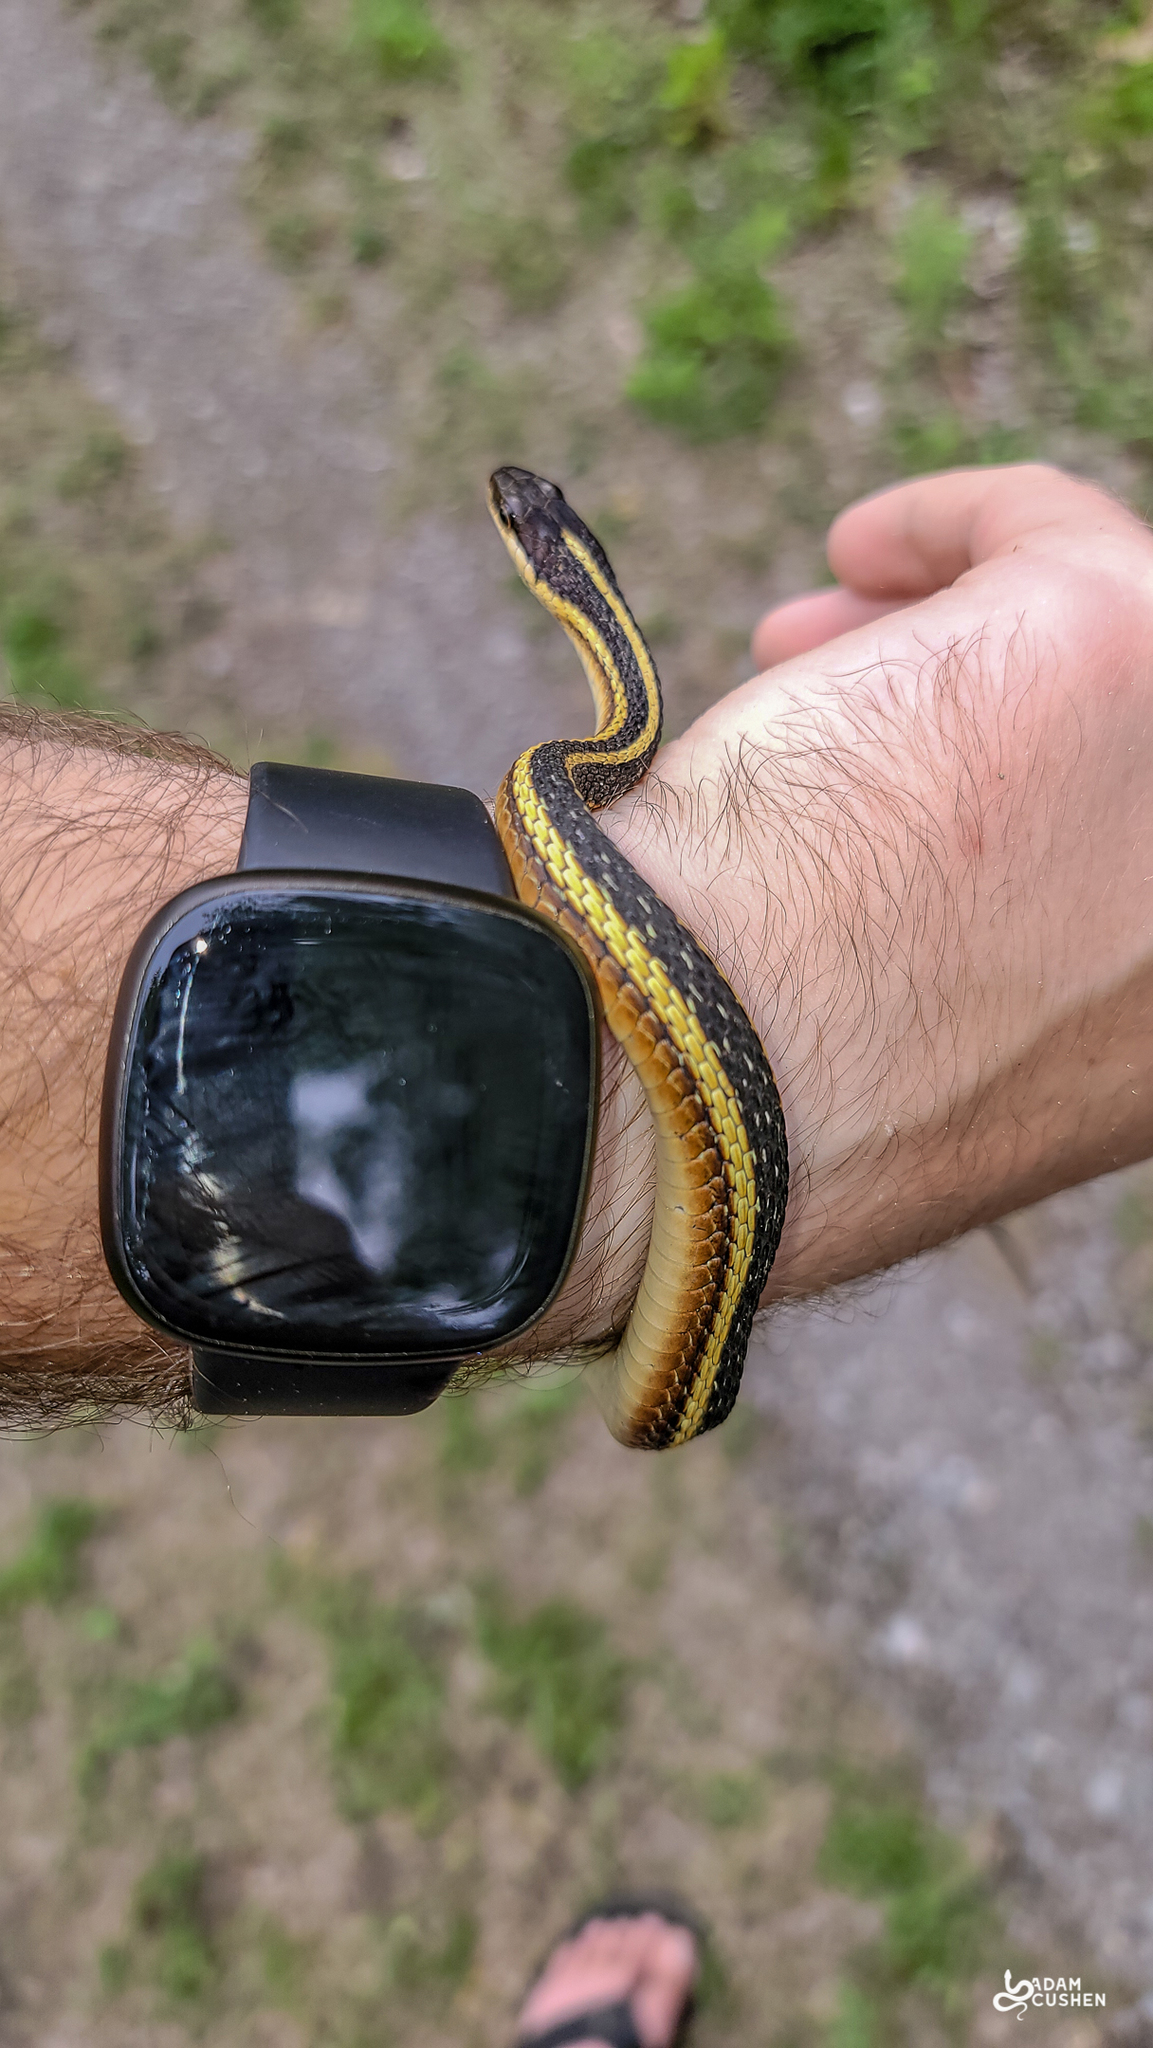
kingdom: Animalia
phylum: Chordata
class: Squamata
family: Colubridae
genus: Thamnophis
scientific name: Thamnophis saurita
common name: Eastern ribbonsnake
